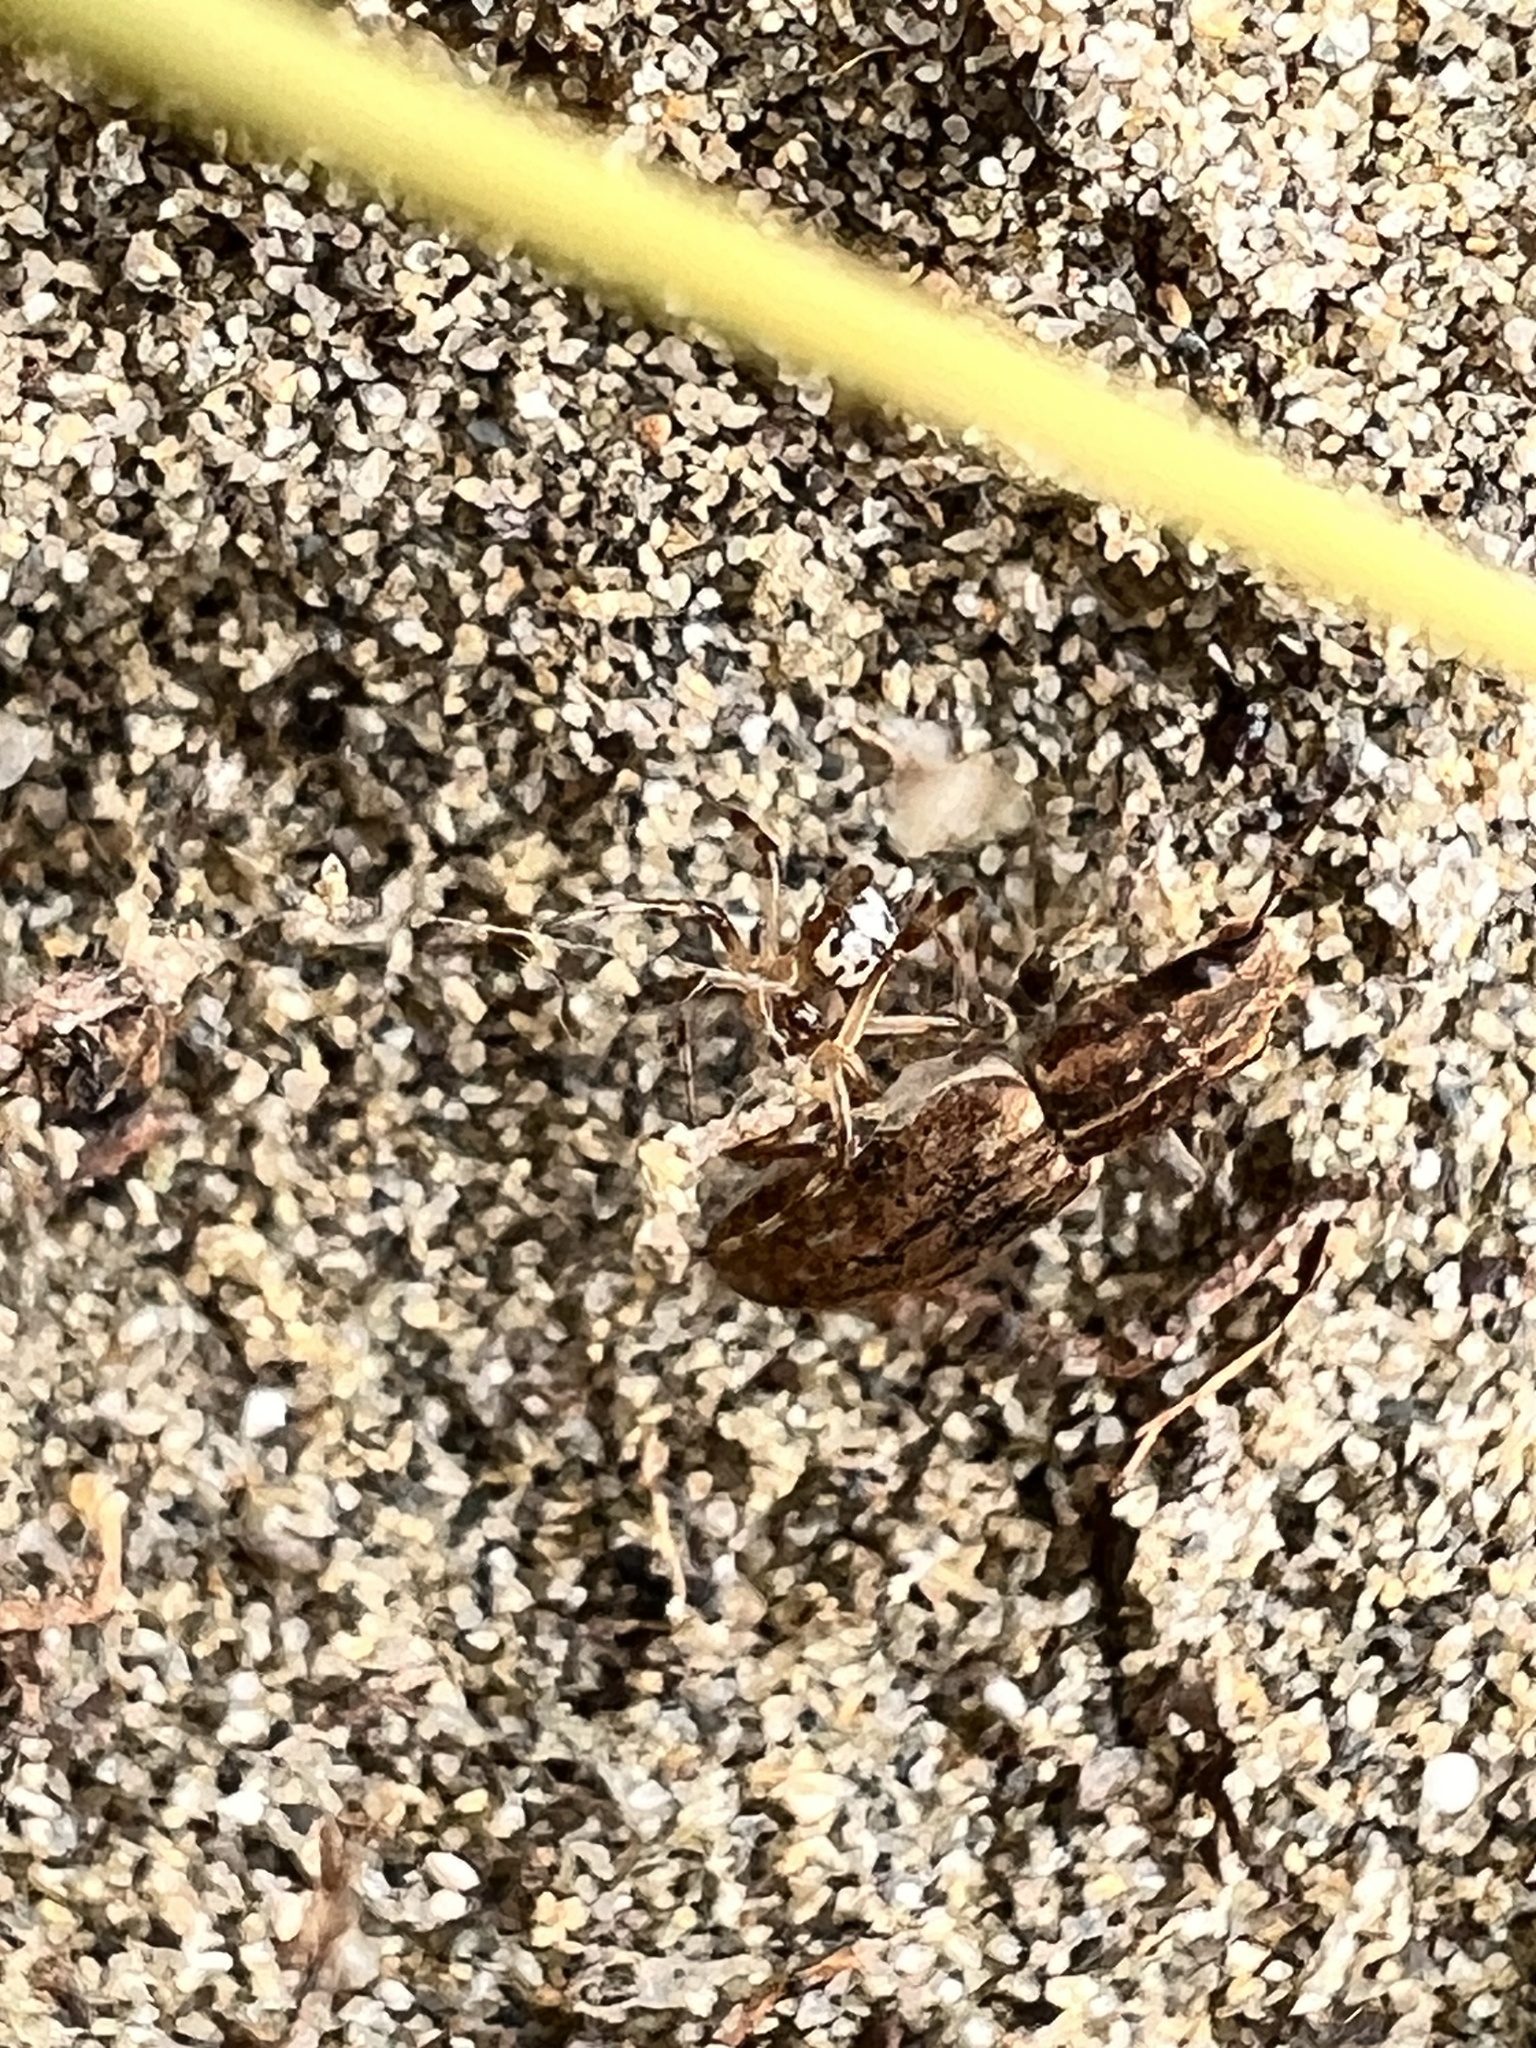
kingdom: Animalia
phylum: Arthropoda
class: Insecta
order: Coleoptera
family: Curculionidae
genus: Sitona
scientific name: Sitona obsoletus
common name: Weevil
